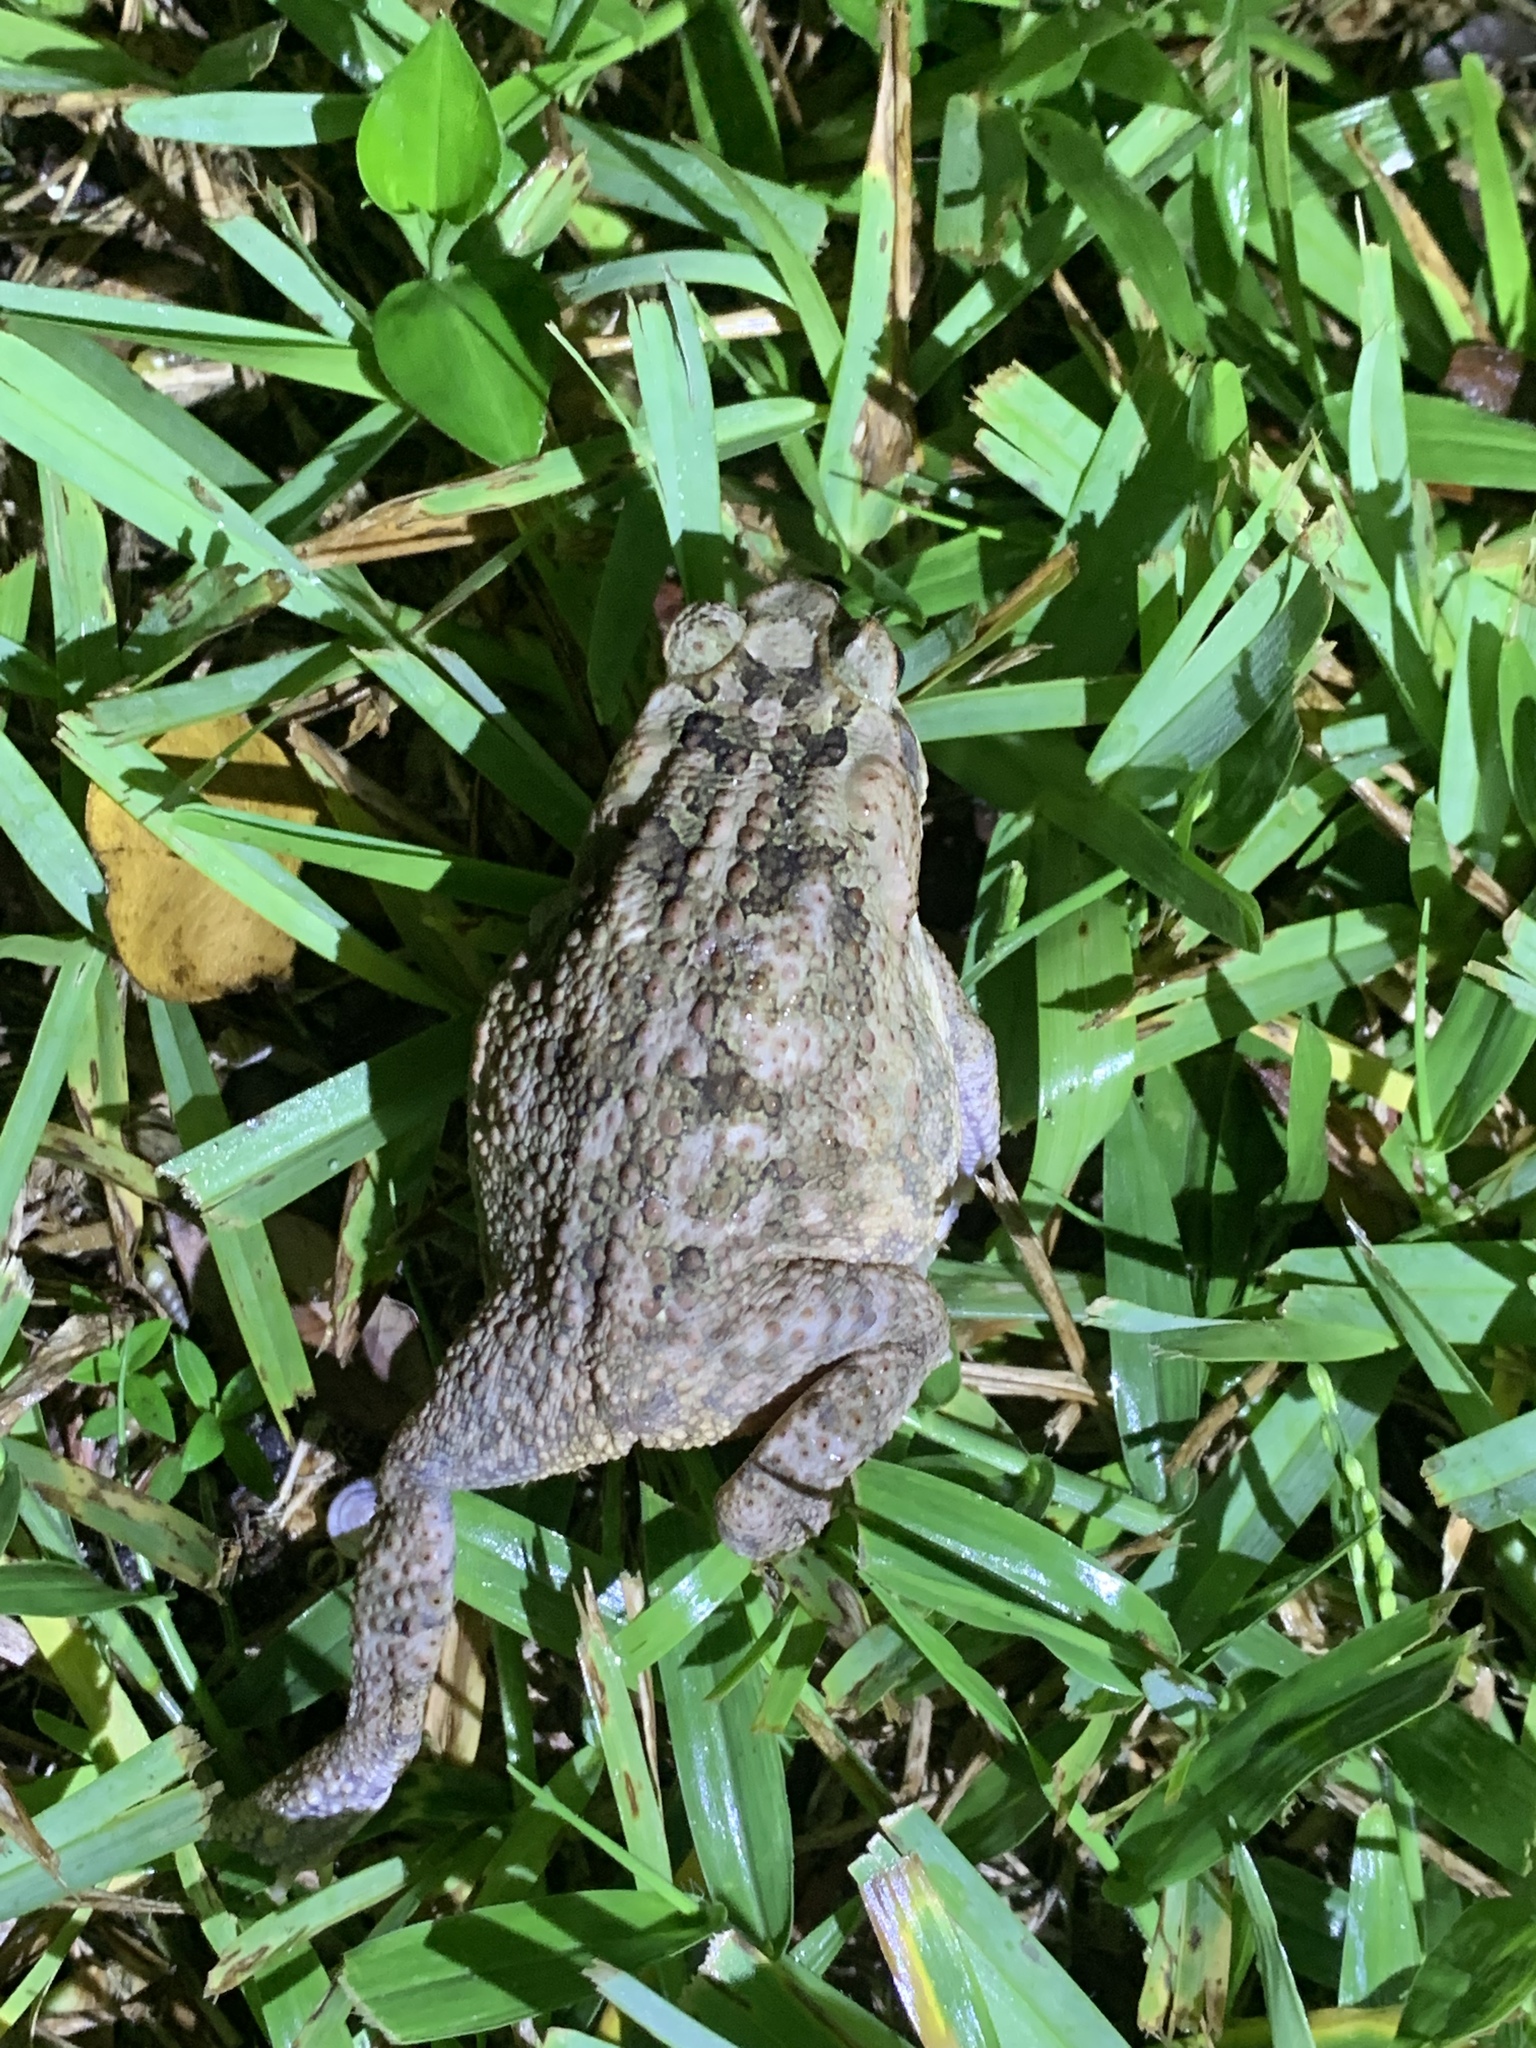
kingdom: Animalia
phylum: Chordata
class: Amphibia
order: Anura
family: Bufonidae
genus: Rhinella
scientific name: Rhinella marina
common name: Cane toad
